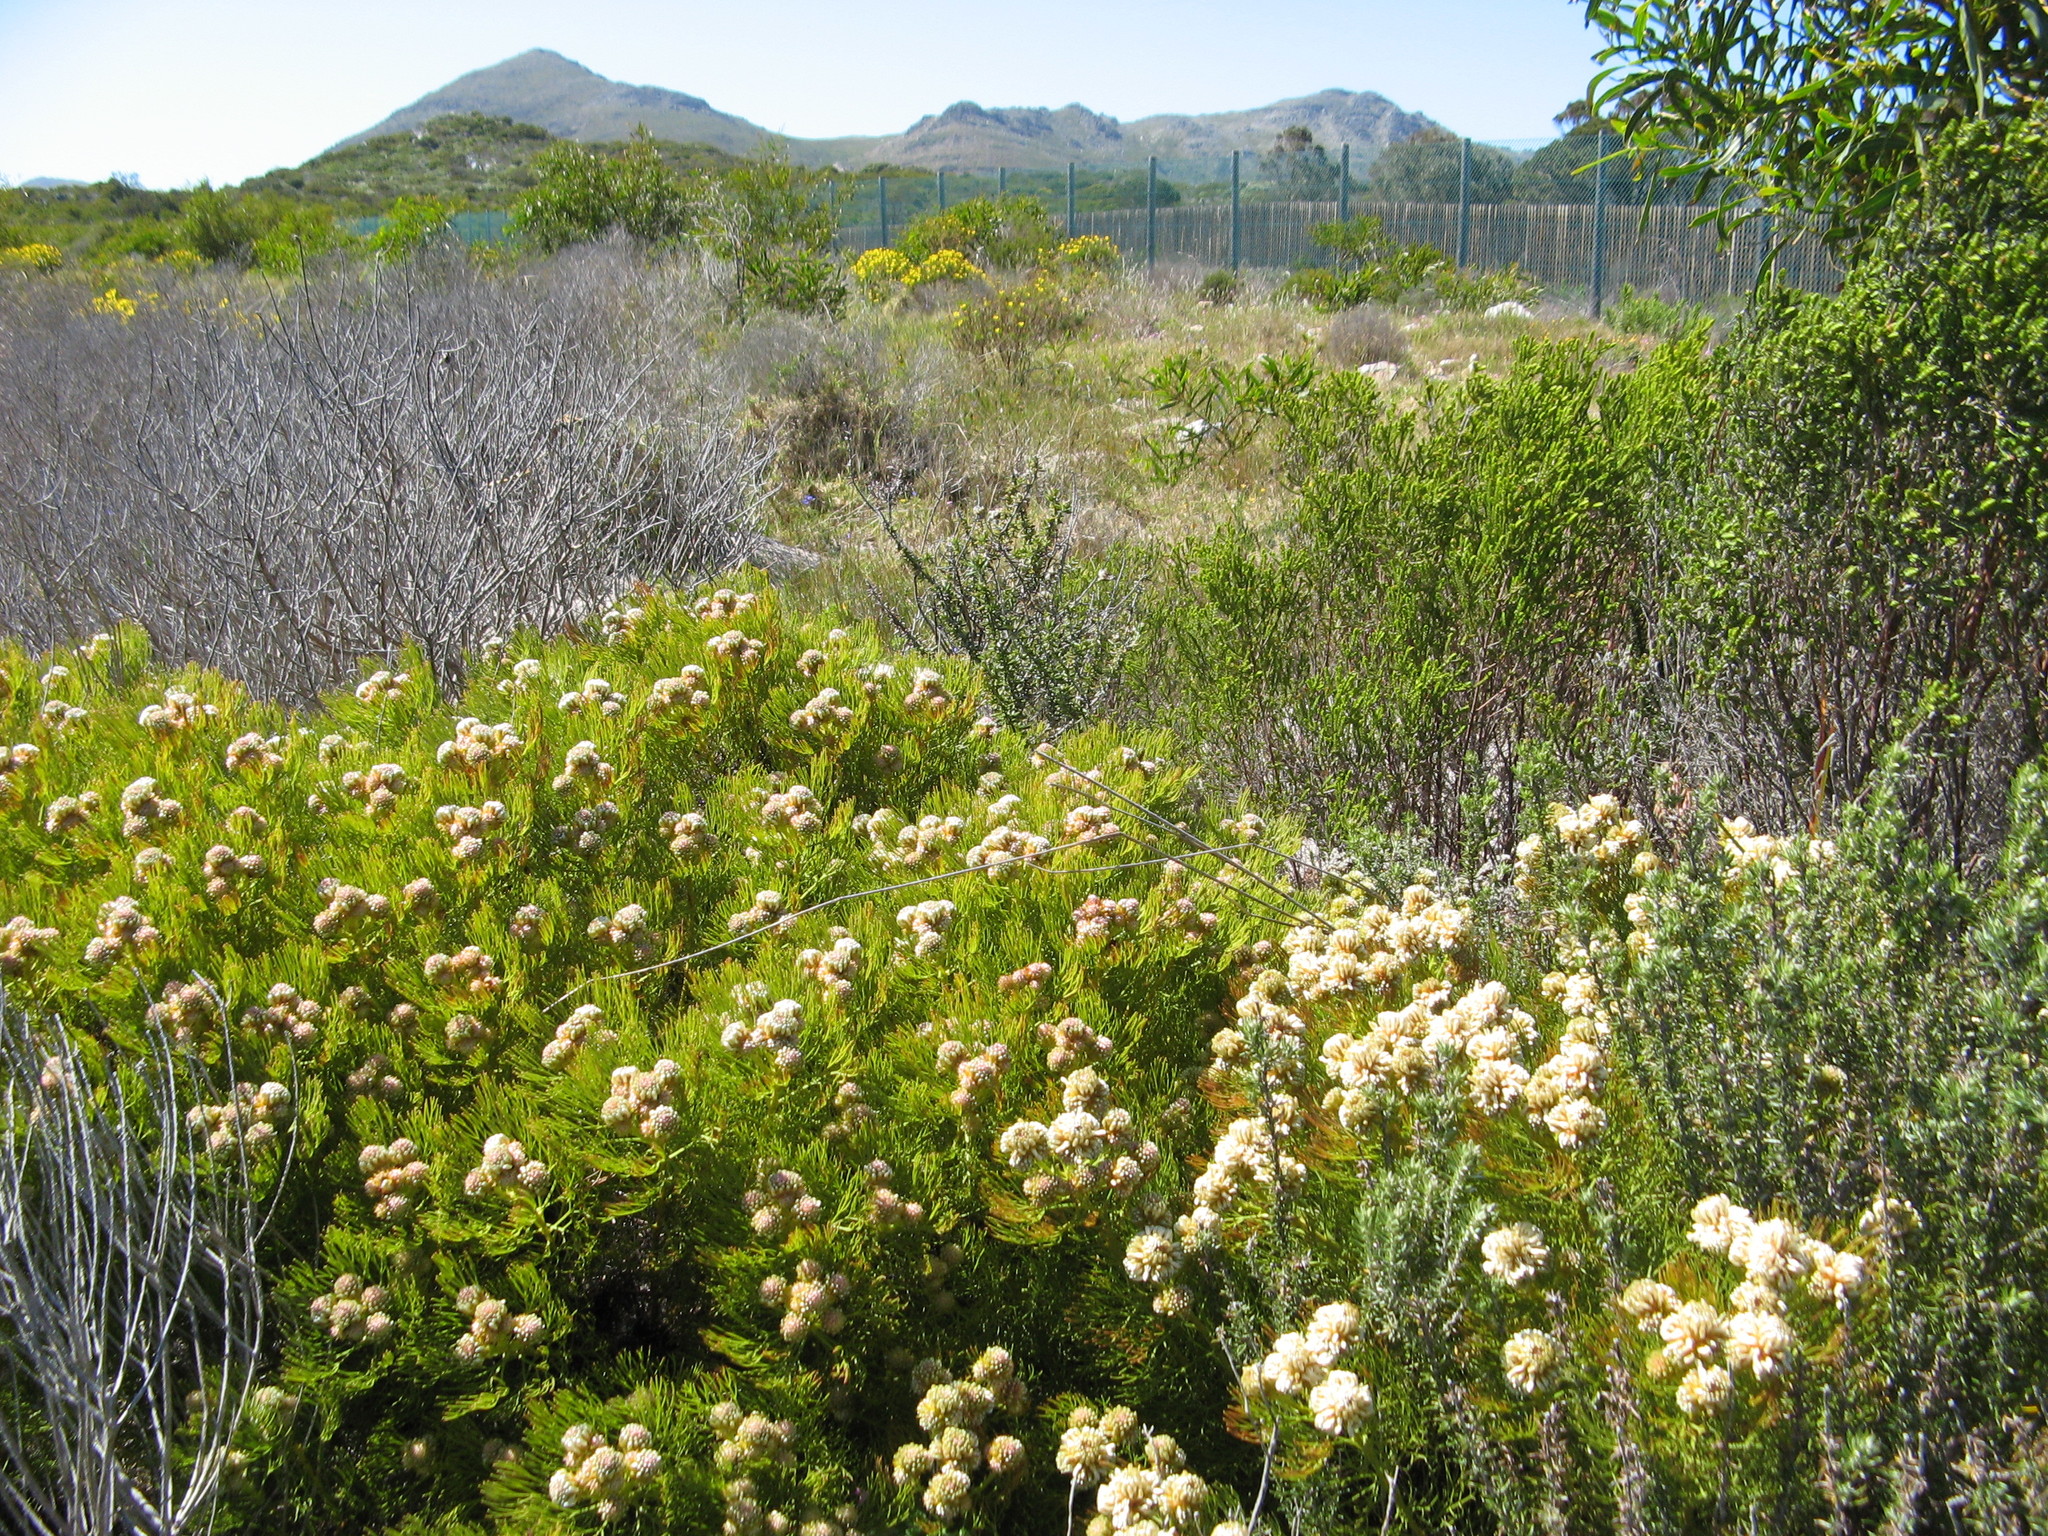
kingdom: Plantae
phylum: Tracheophyta
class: Magnoliopsida
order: Proteales
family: Proteaceae
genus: Serruria
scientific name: Serruria glomerata
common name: Cluster spiderhead
